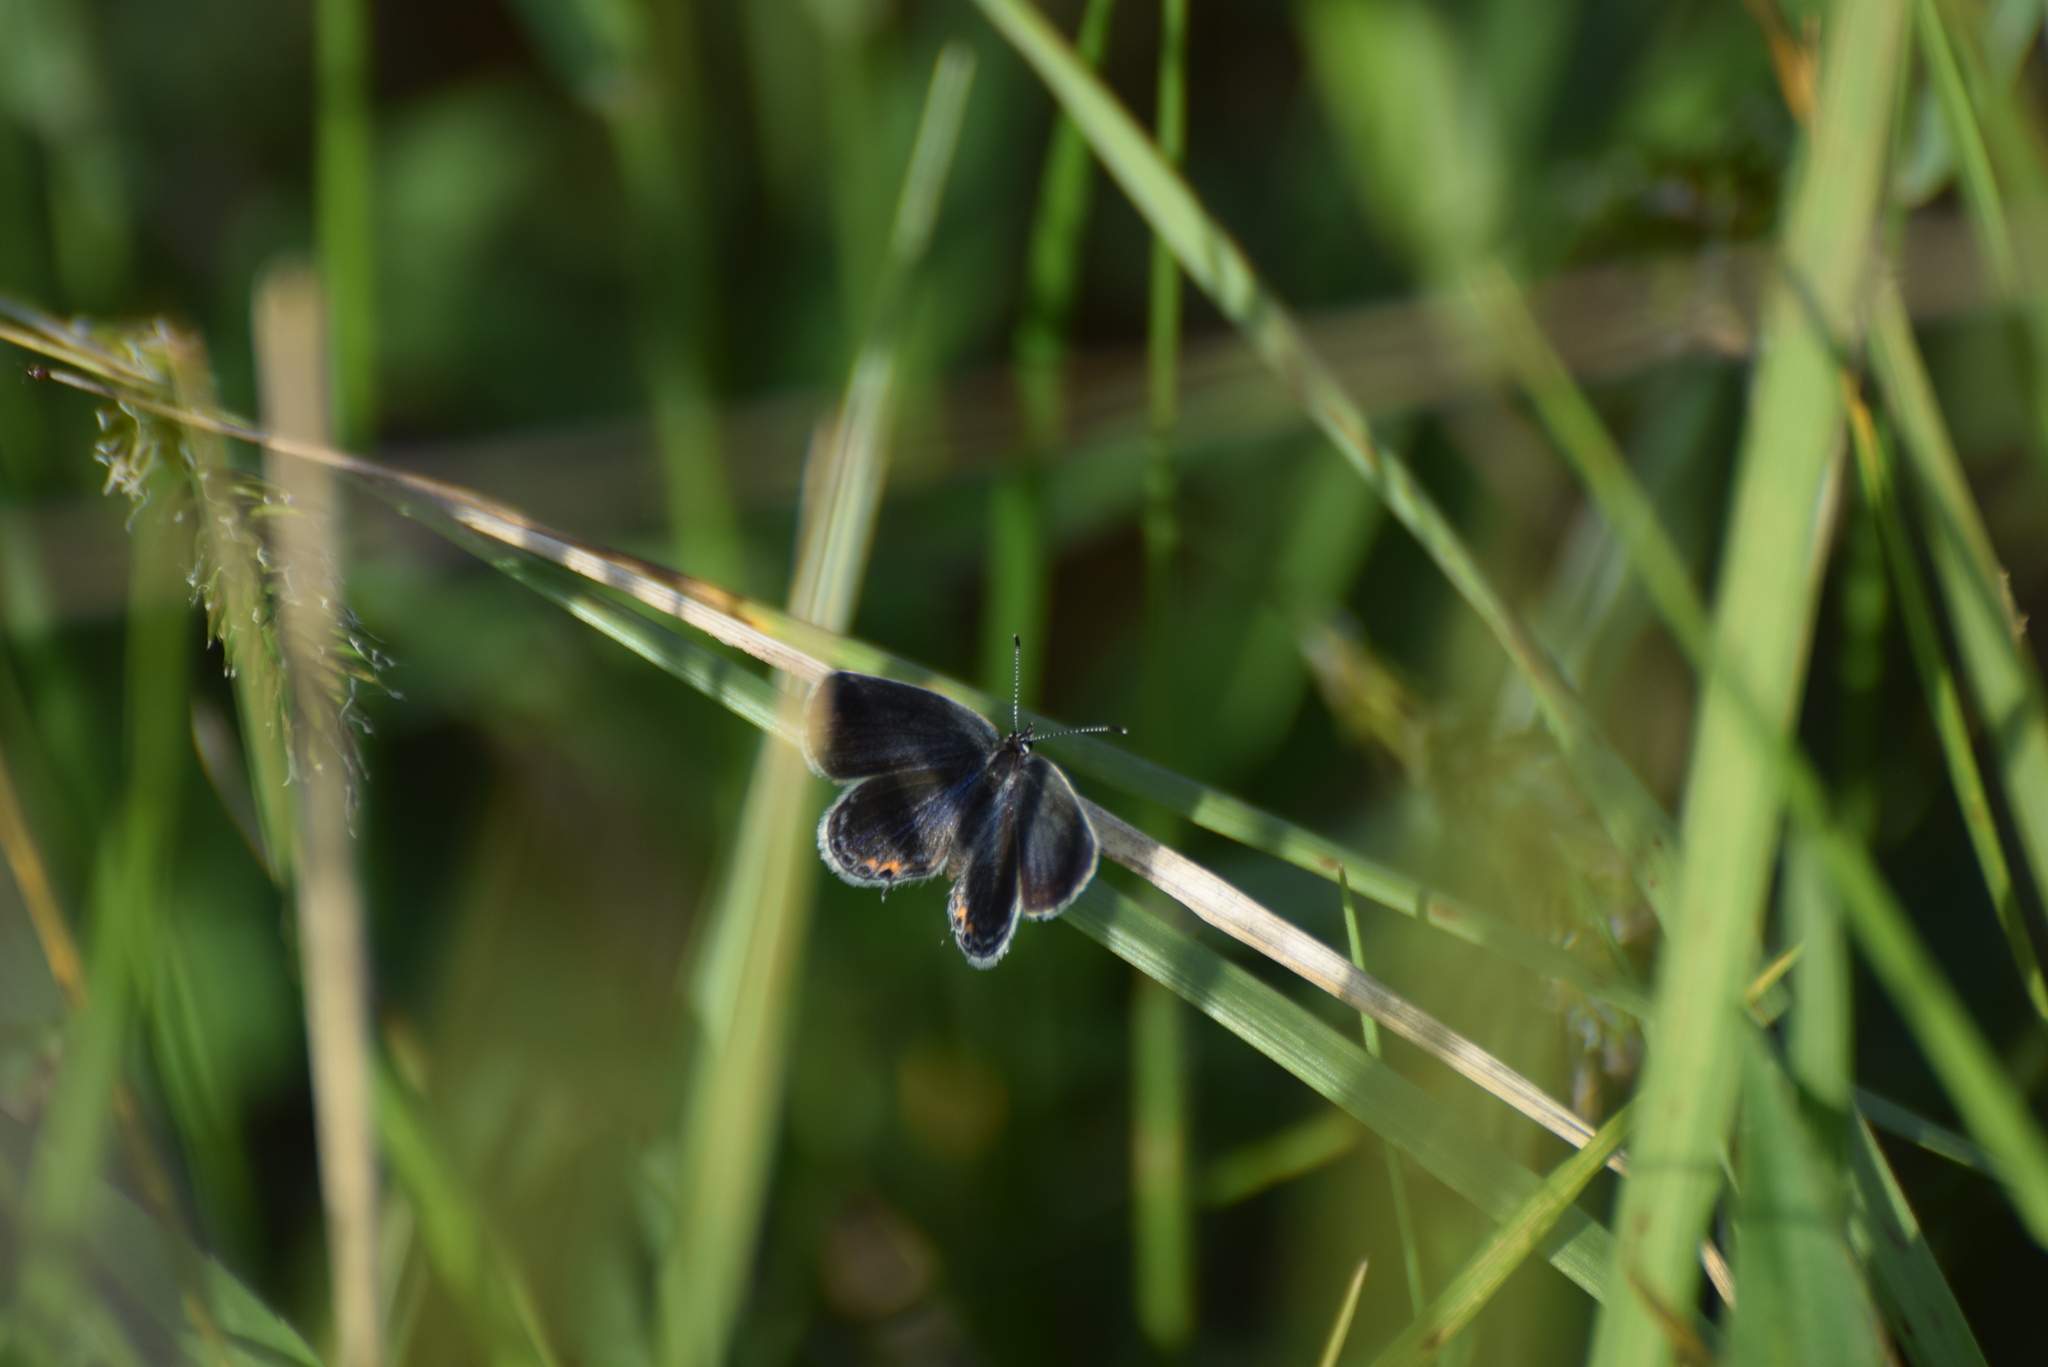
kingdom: Animalia
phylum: Arthropoda
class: Insecta
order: Lepidoptera
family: Lycaenidae
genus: Elkalyce
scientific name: Elkalyce comyntas
